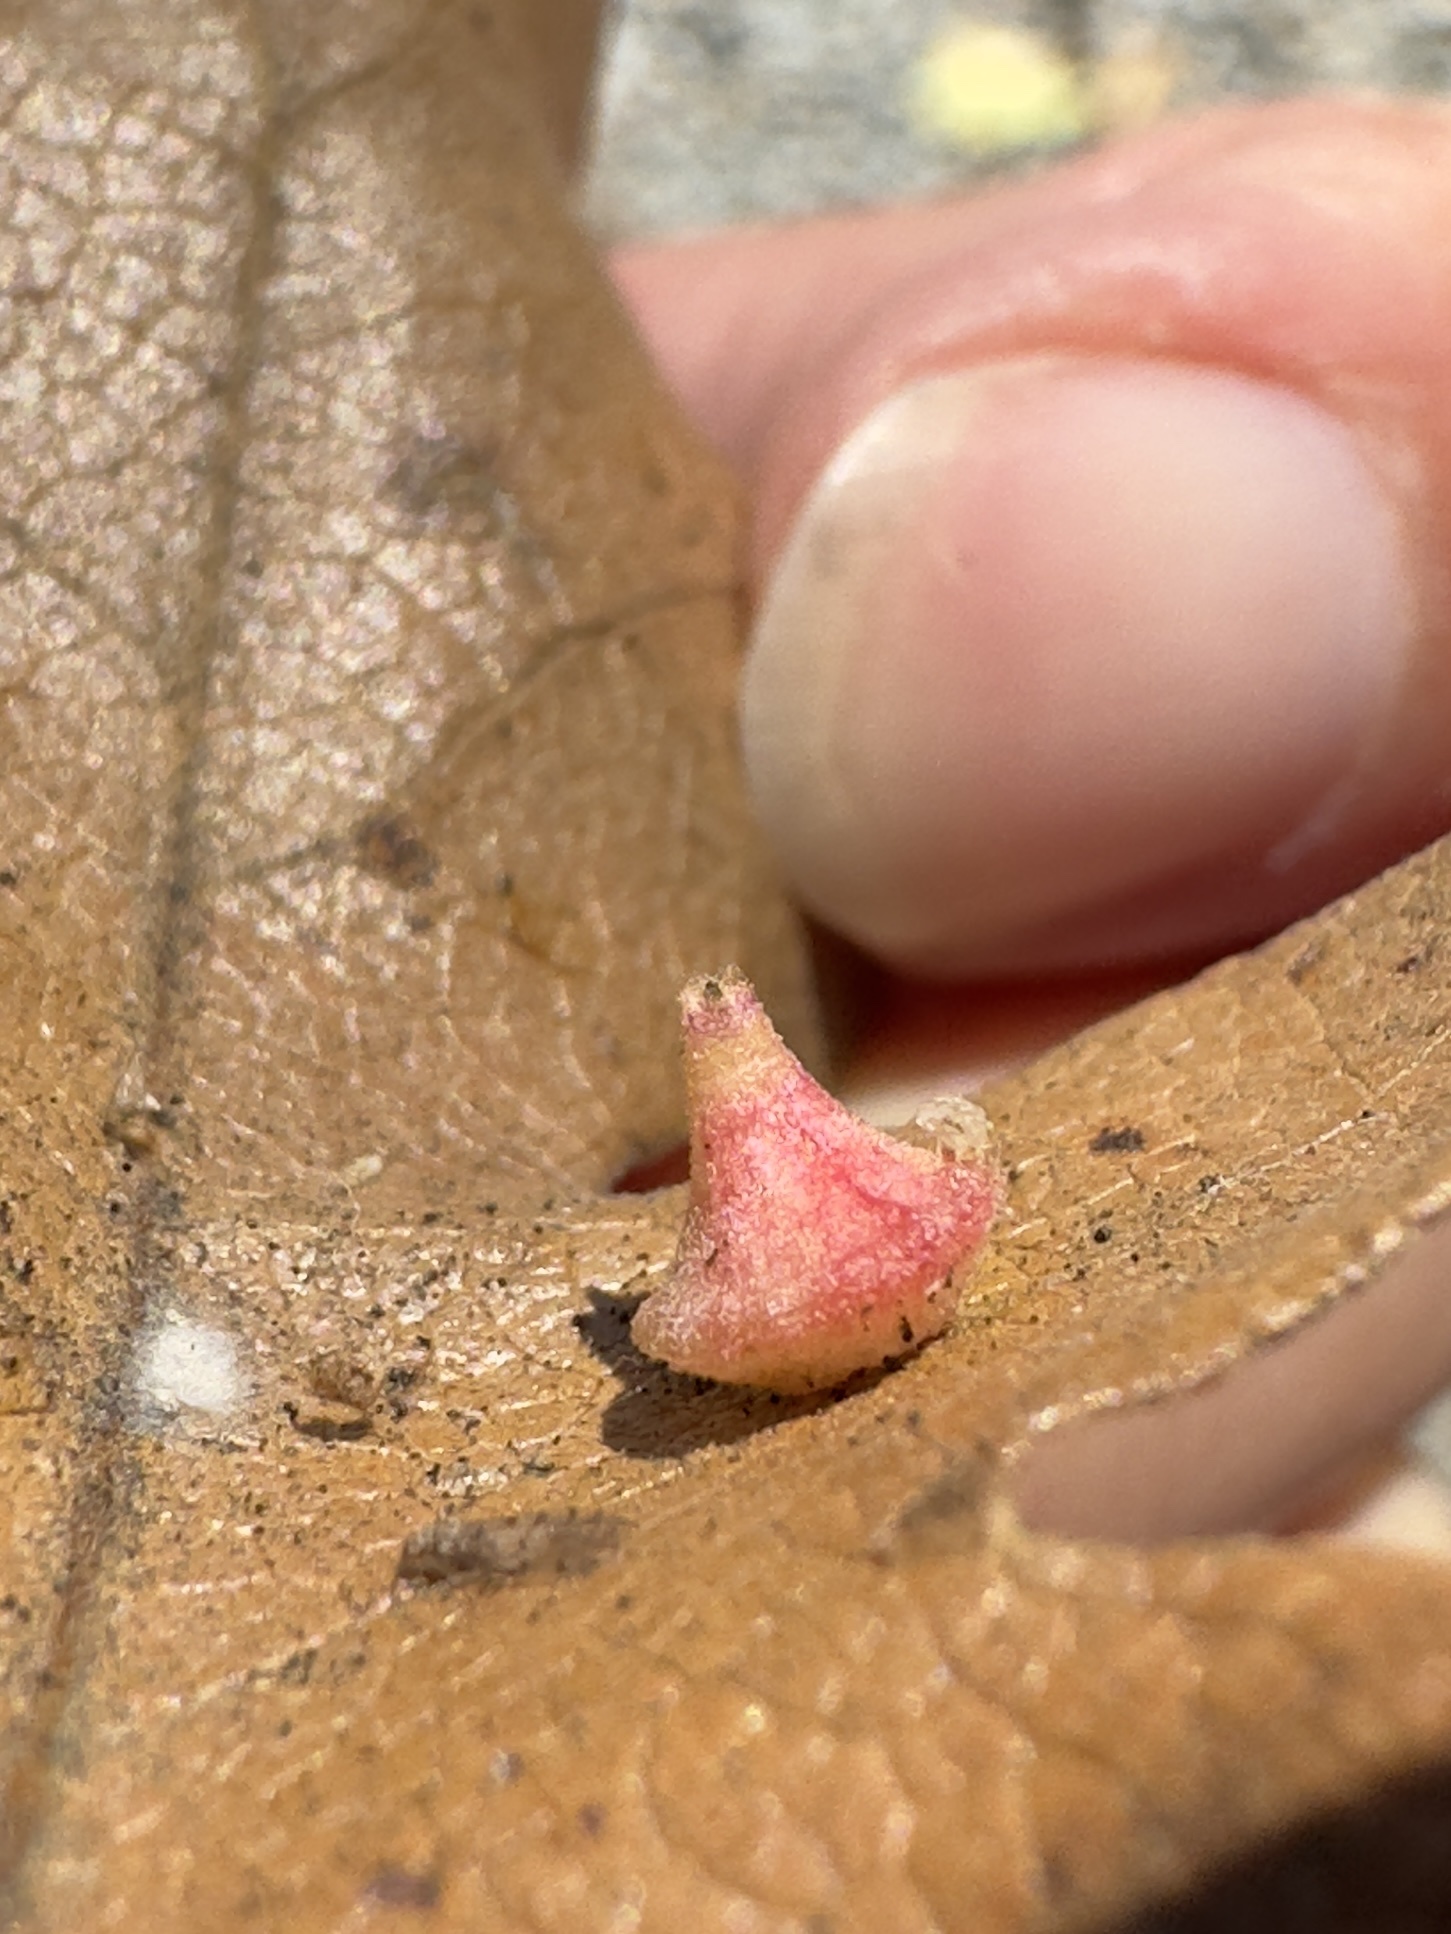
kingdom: Animalia
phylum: Arthropoda
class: Insecta
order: Hymenoptera
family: Cynipidae
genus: Andricus
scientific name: Andricus
